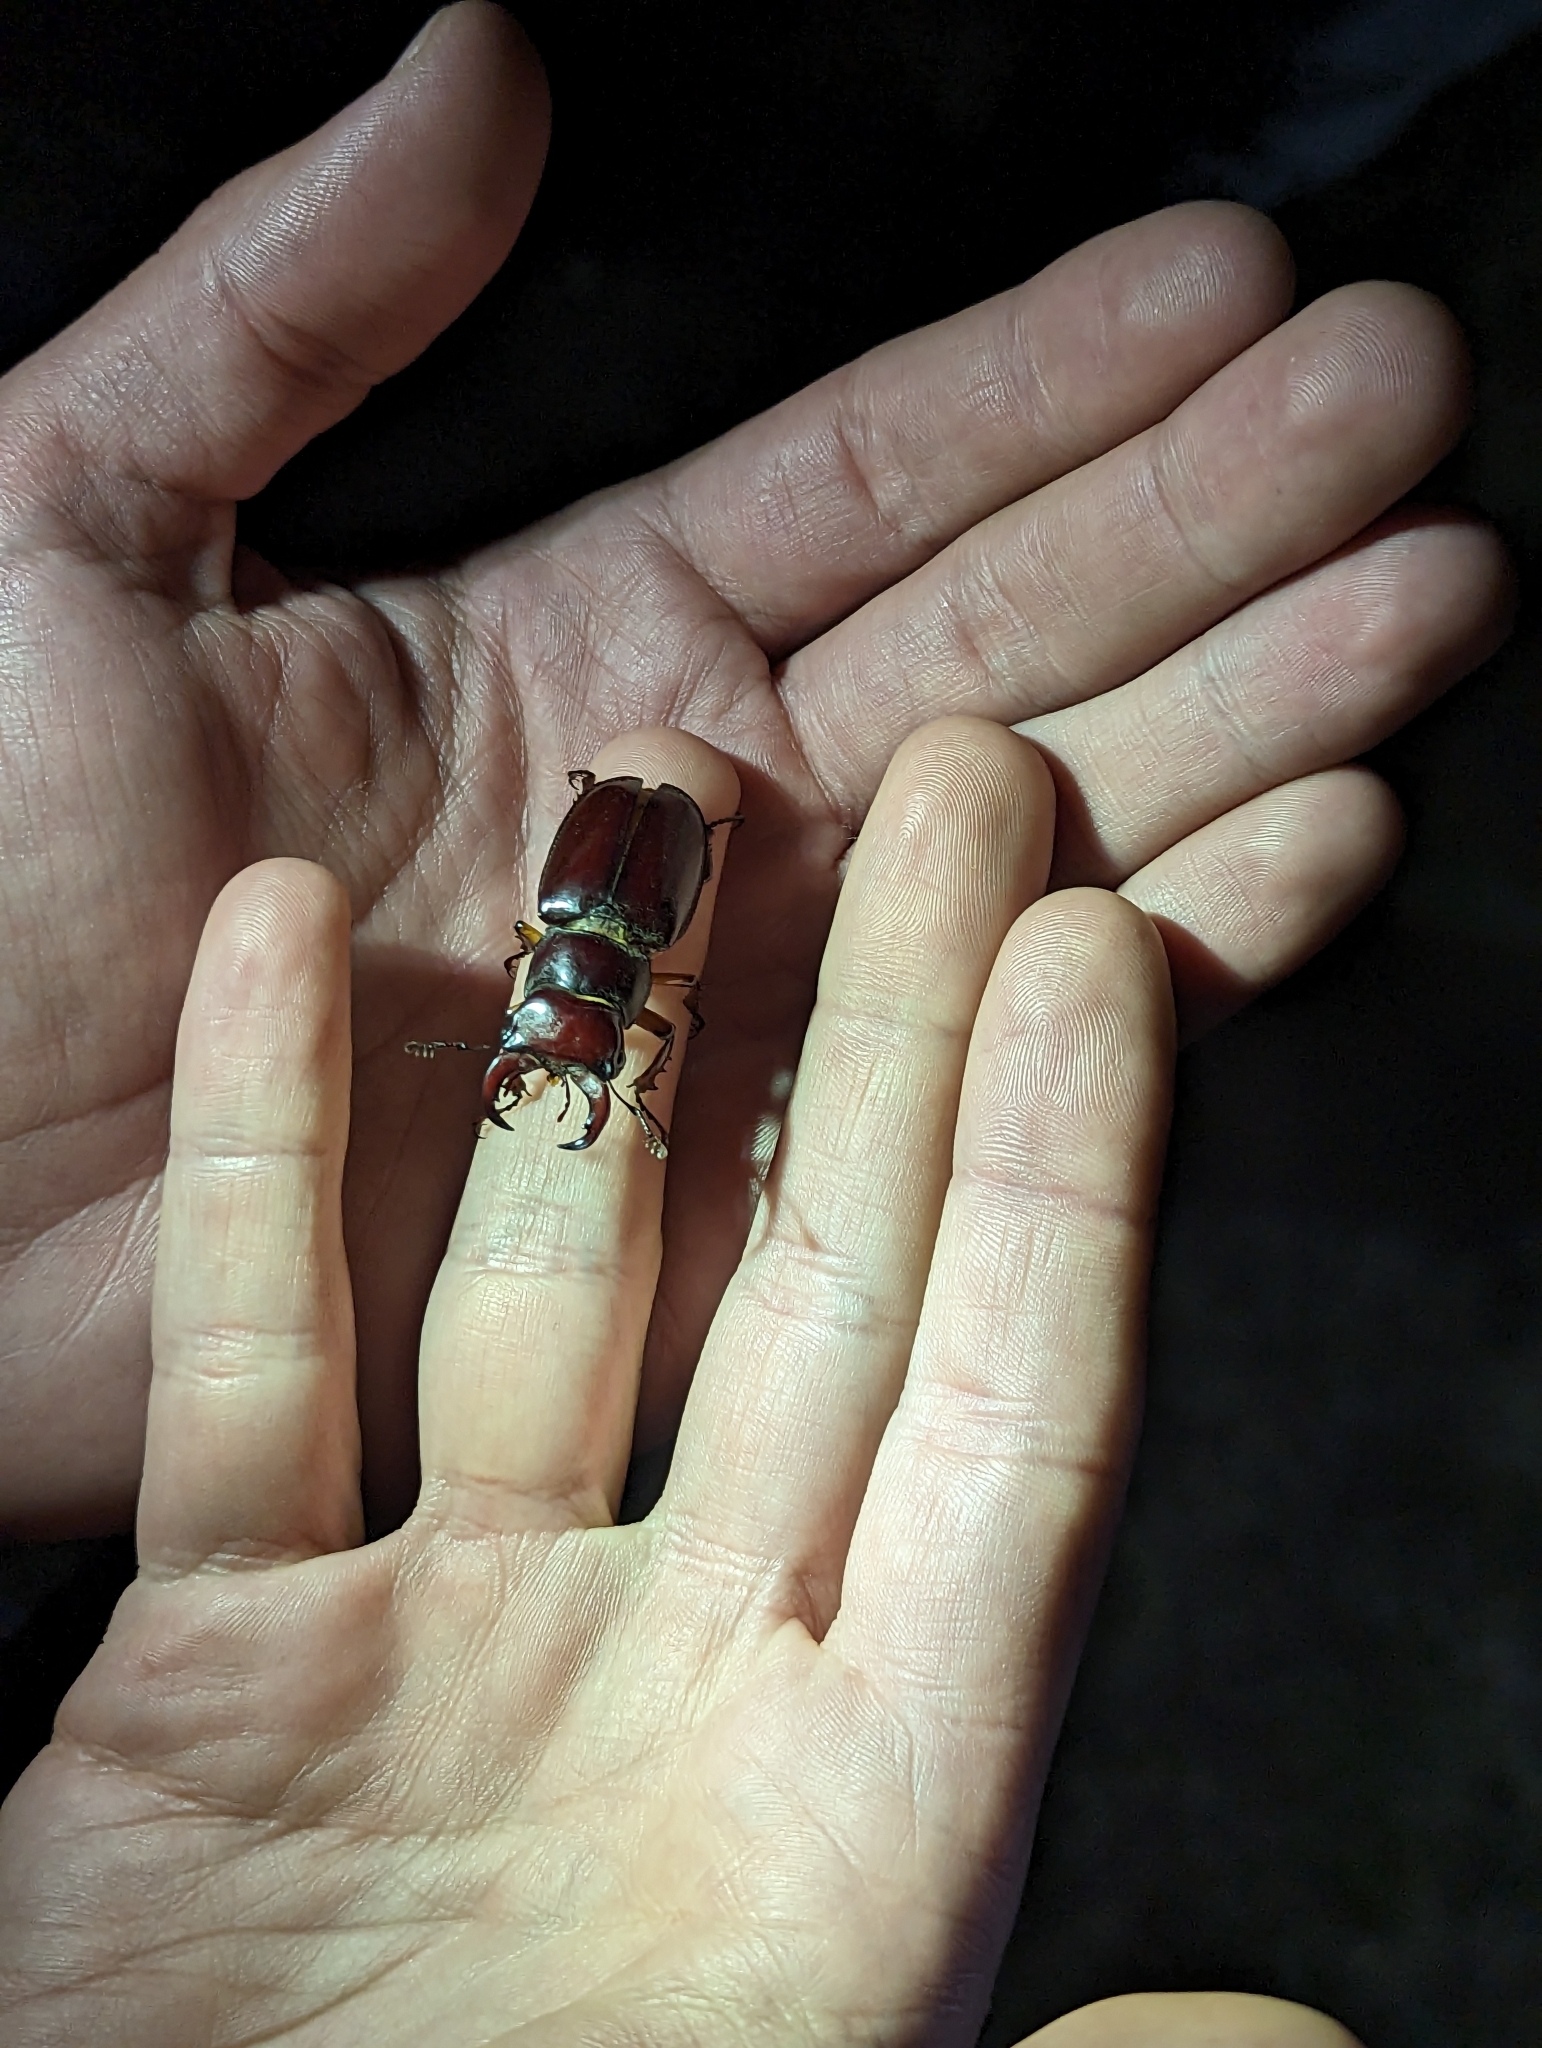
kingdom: Animalia
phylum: Arthropoda
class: Insecta
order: Coleoptera
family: Lucanidae
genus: Lucanus
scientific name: Lucanus capreolus
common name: Stag beetle
